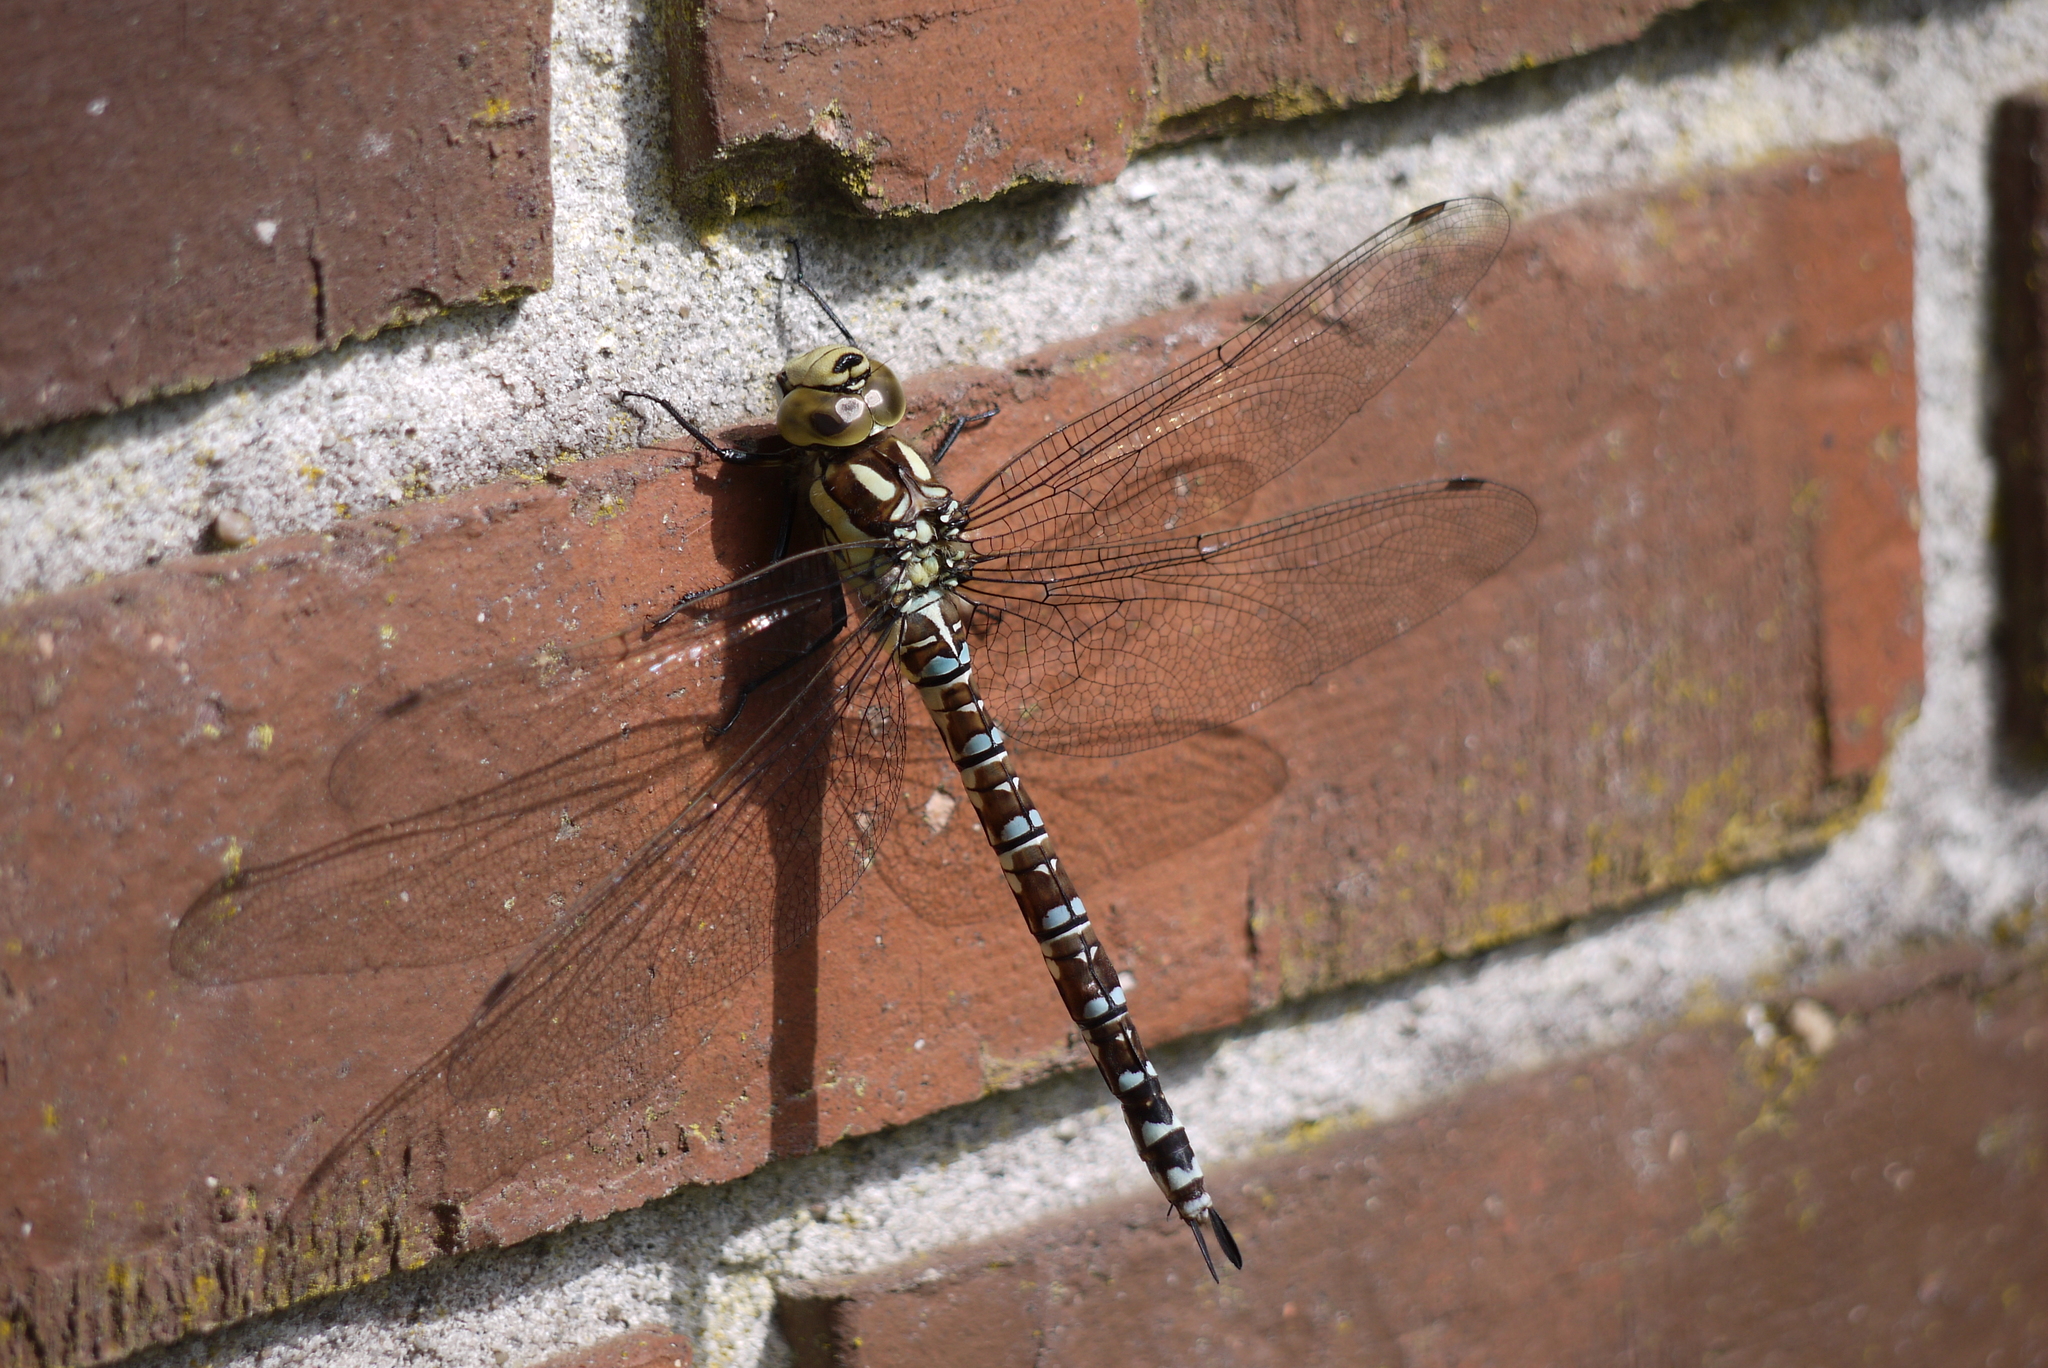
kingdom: Animalia
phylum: Arthropoda
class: Insecta
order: Odonata
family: Aeshnidae
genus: Aeshna
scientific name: Aeshna cyanea
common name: Southern hawker
